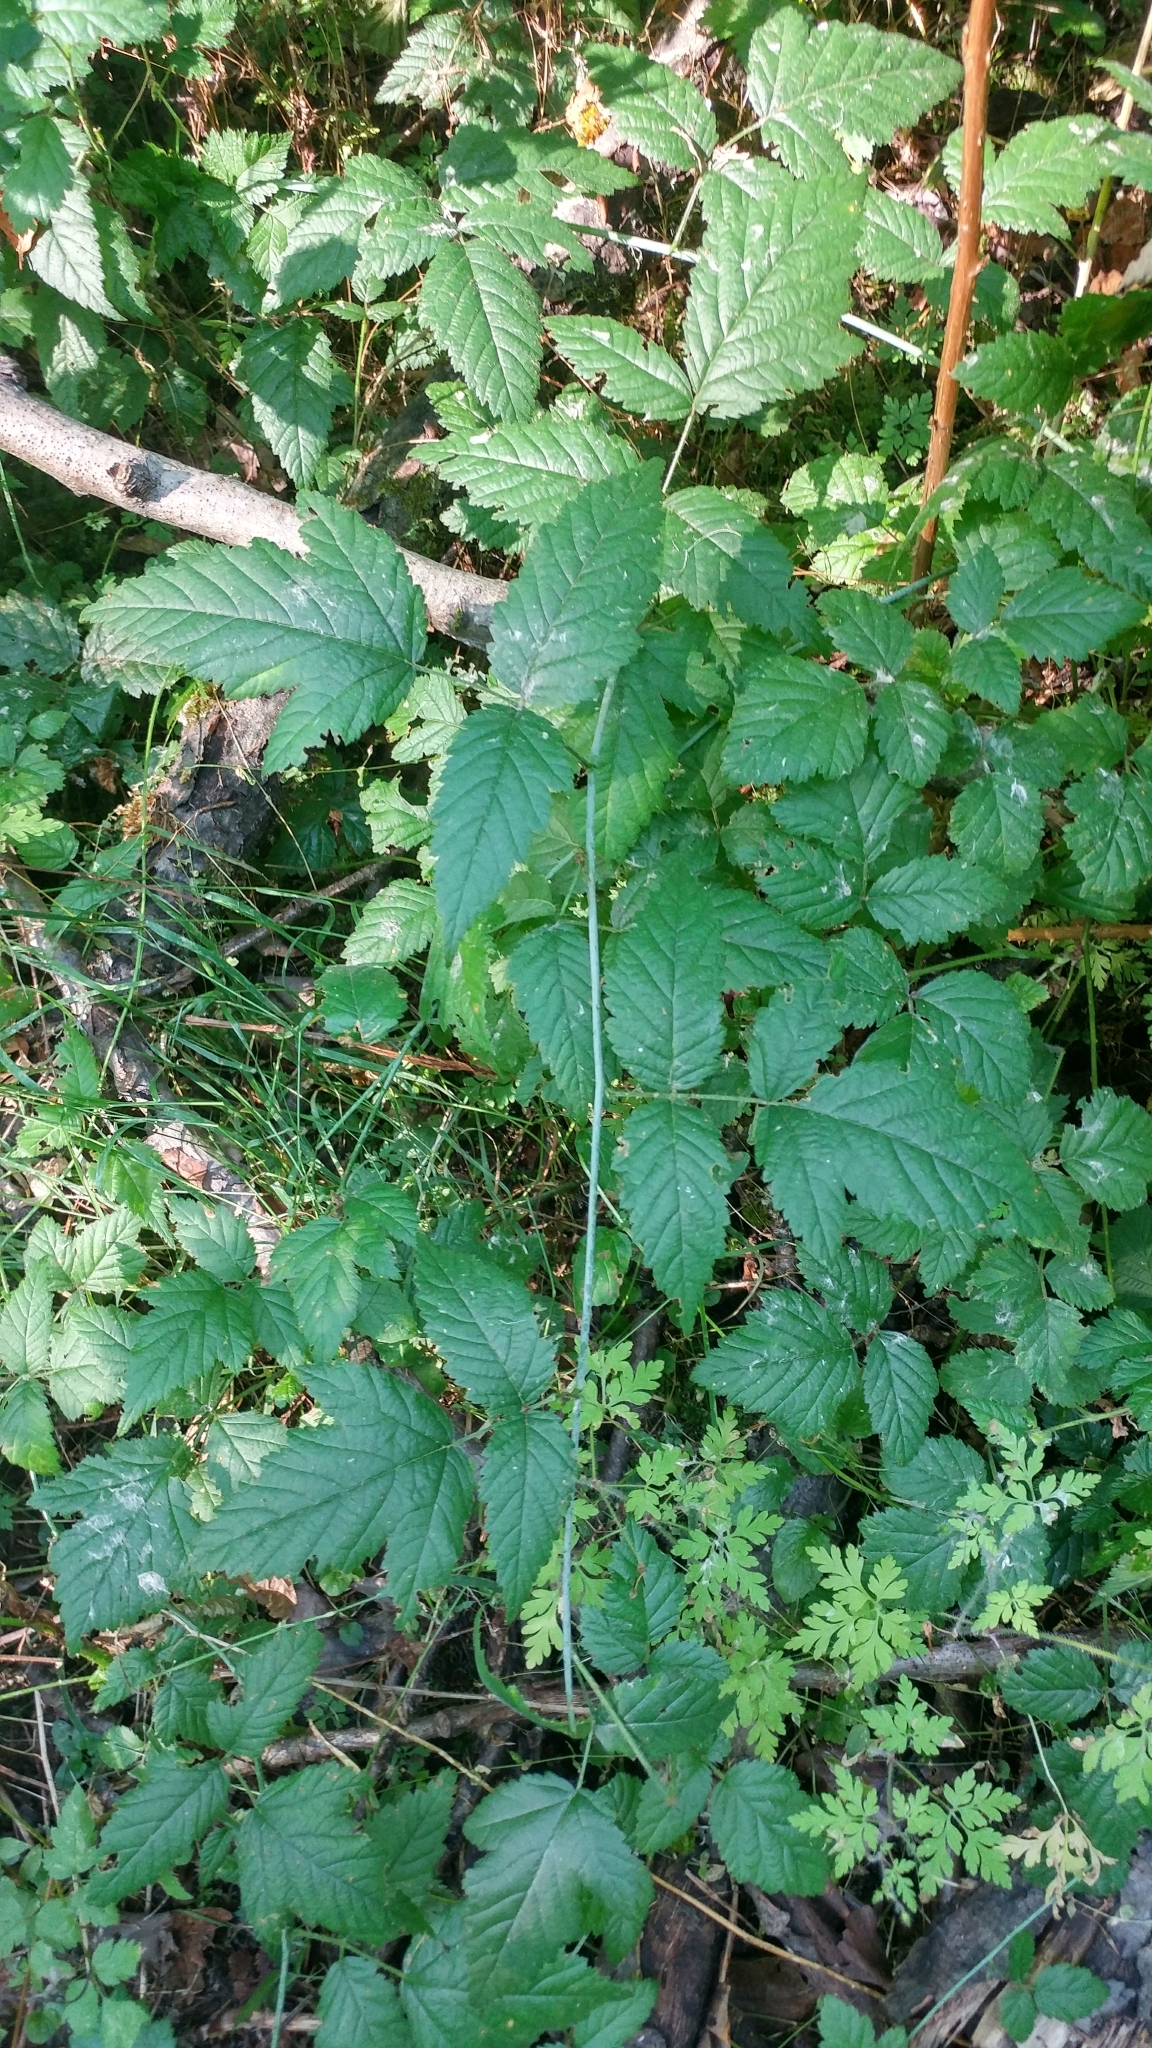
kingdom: Plantae
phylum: Tracheophyta
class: Magnoliopsida
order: Rosales
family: Rosaceae
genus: Rubus
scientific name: Rubus ursinus
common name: Pacific blackberry
